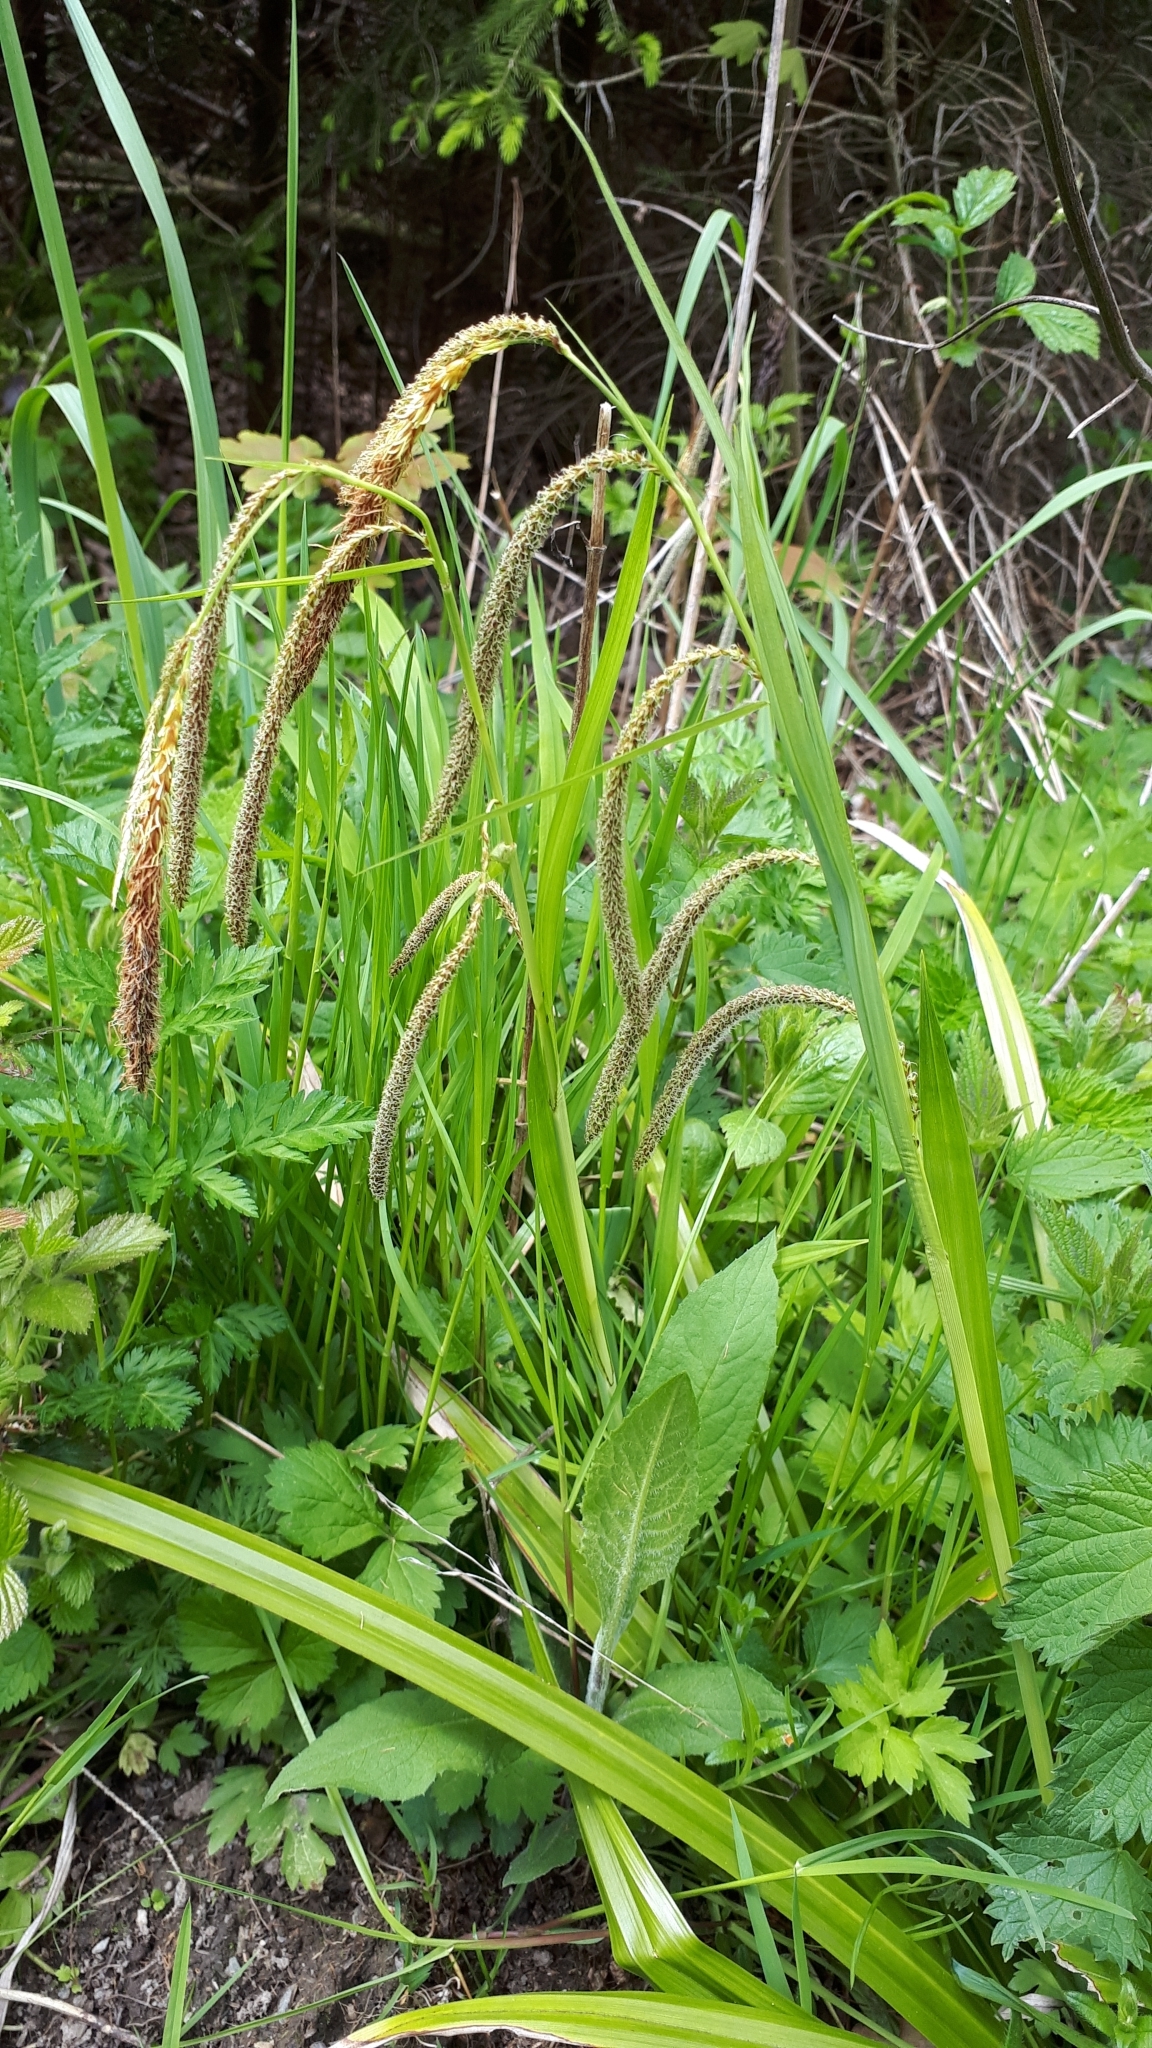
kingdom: Plantae
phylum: Tracheophyta
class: Liliopsida
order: Poales
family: Cyperaceae
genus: Carex
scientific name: Carex pendula
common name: Pendulous sedge
